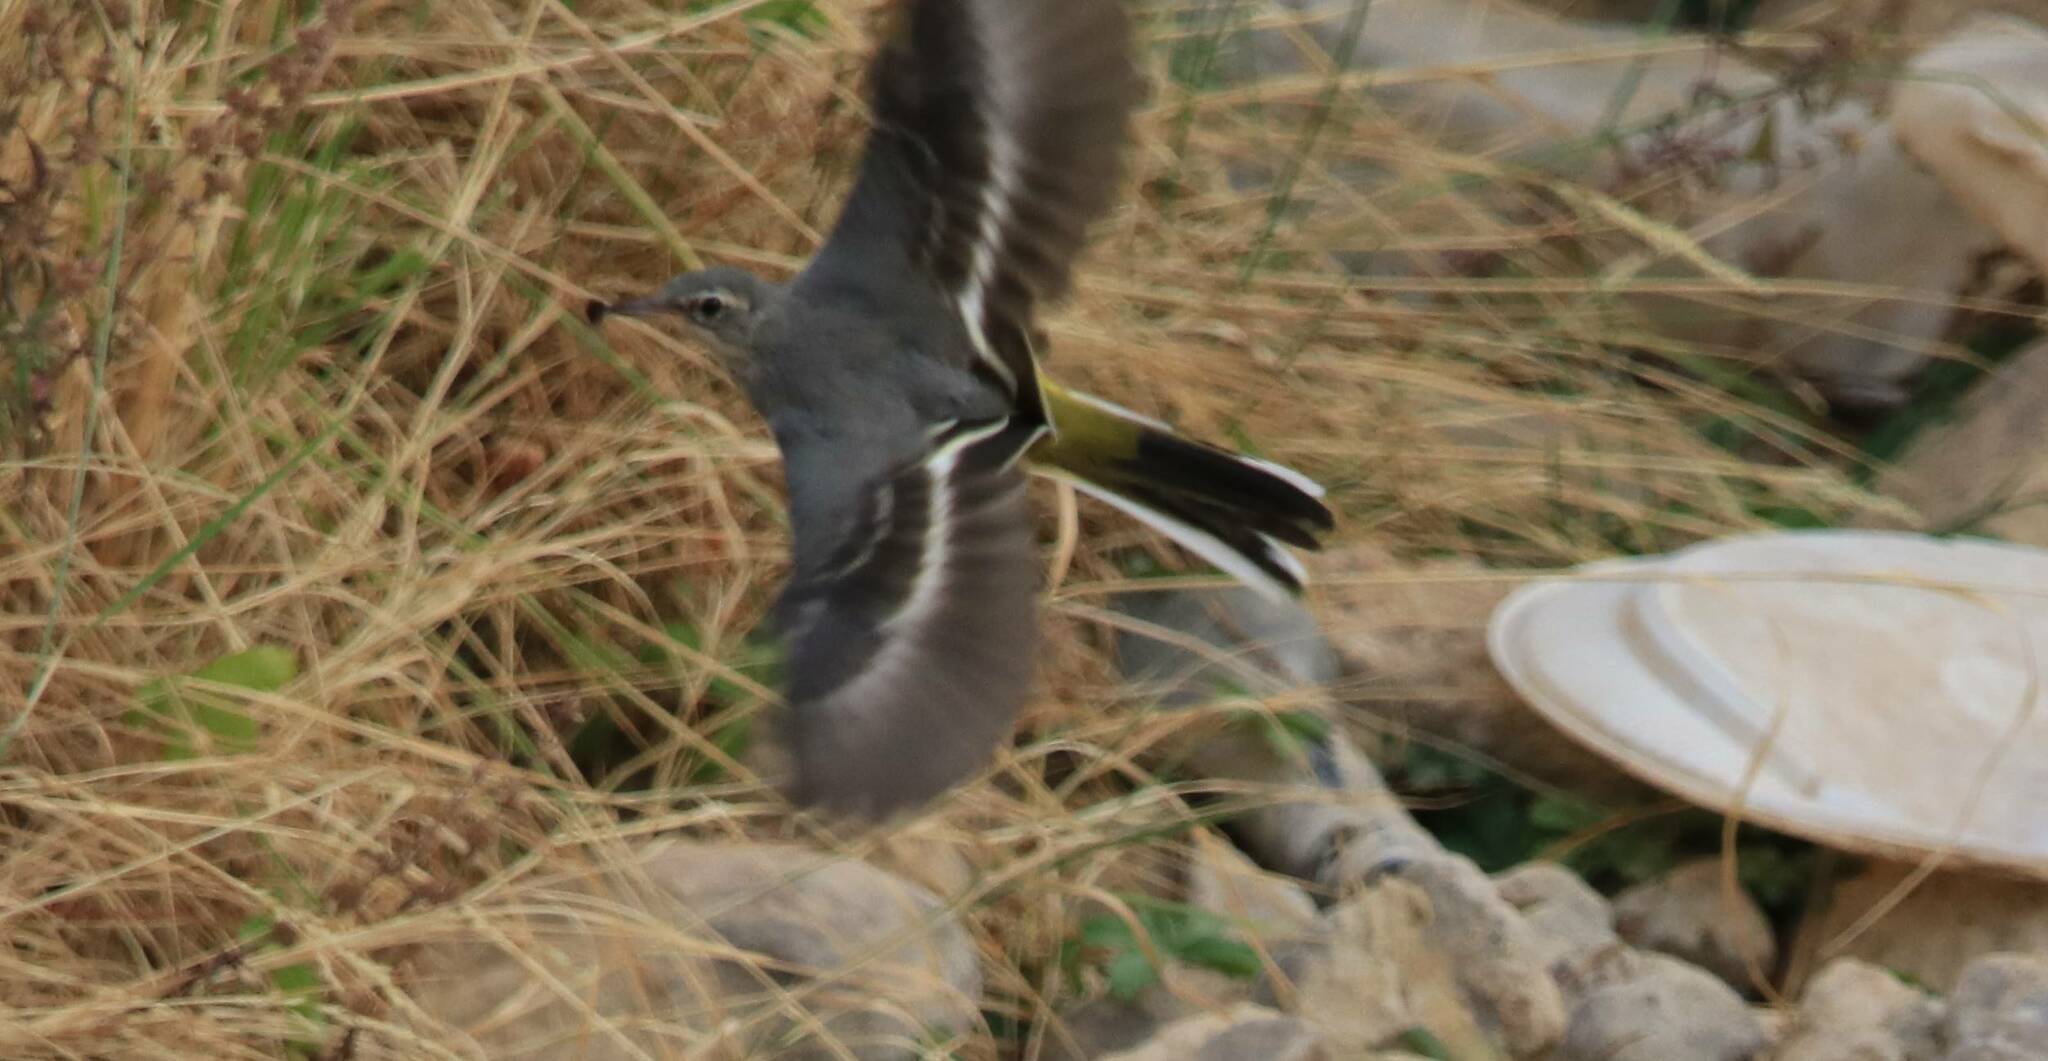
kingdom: Animalia
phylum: Chordata
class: Aves
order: Passeriformes
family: Motacillidae
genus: Motacilla
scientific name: Motacilla cinerea
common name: Grey wagtail
